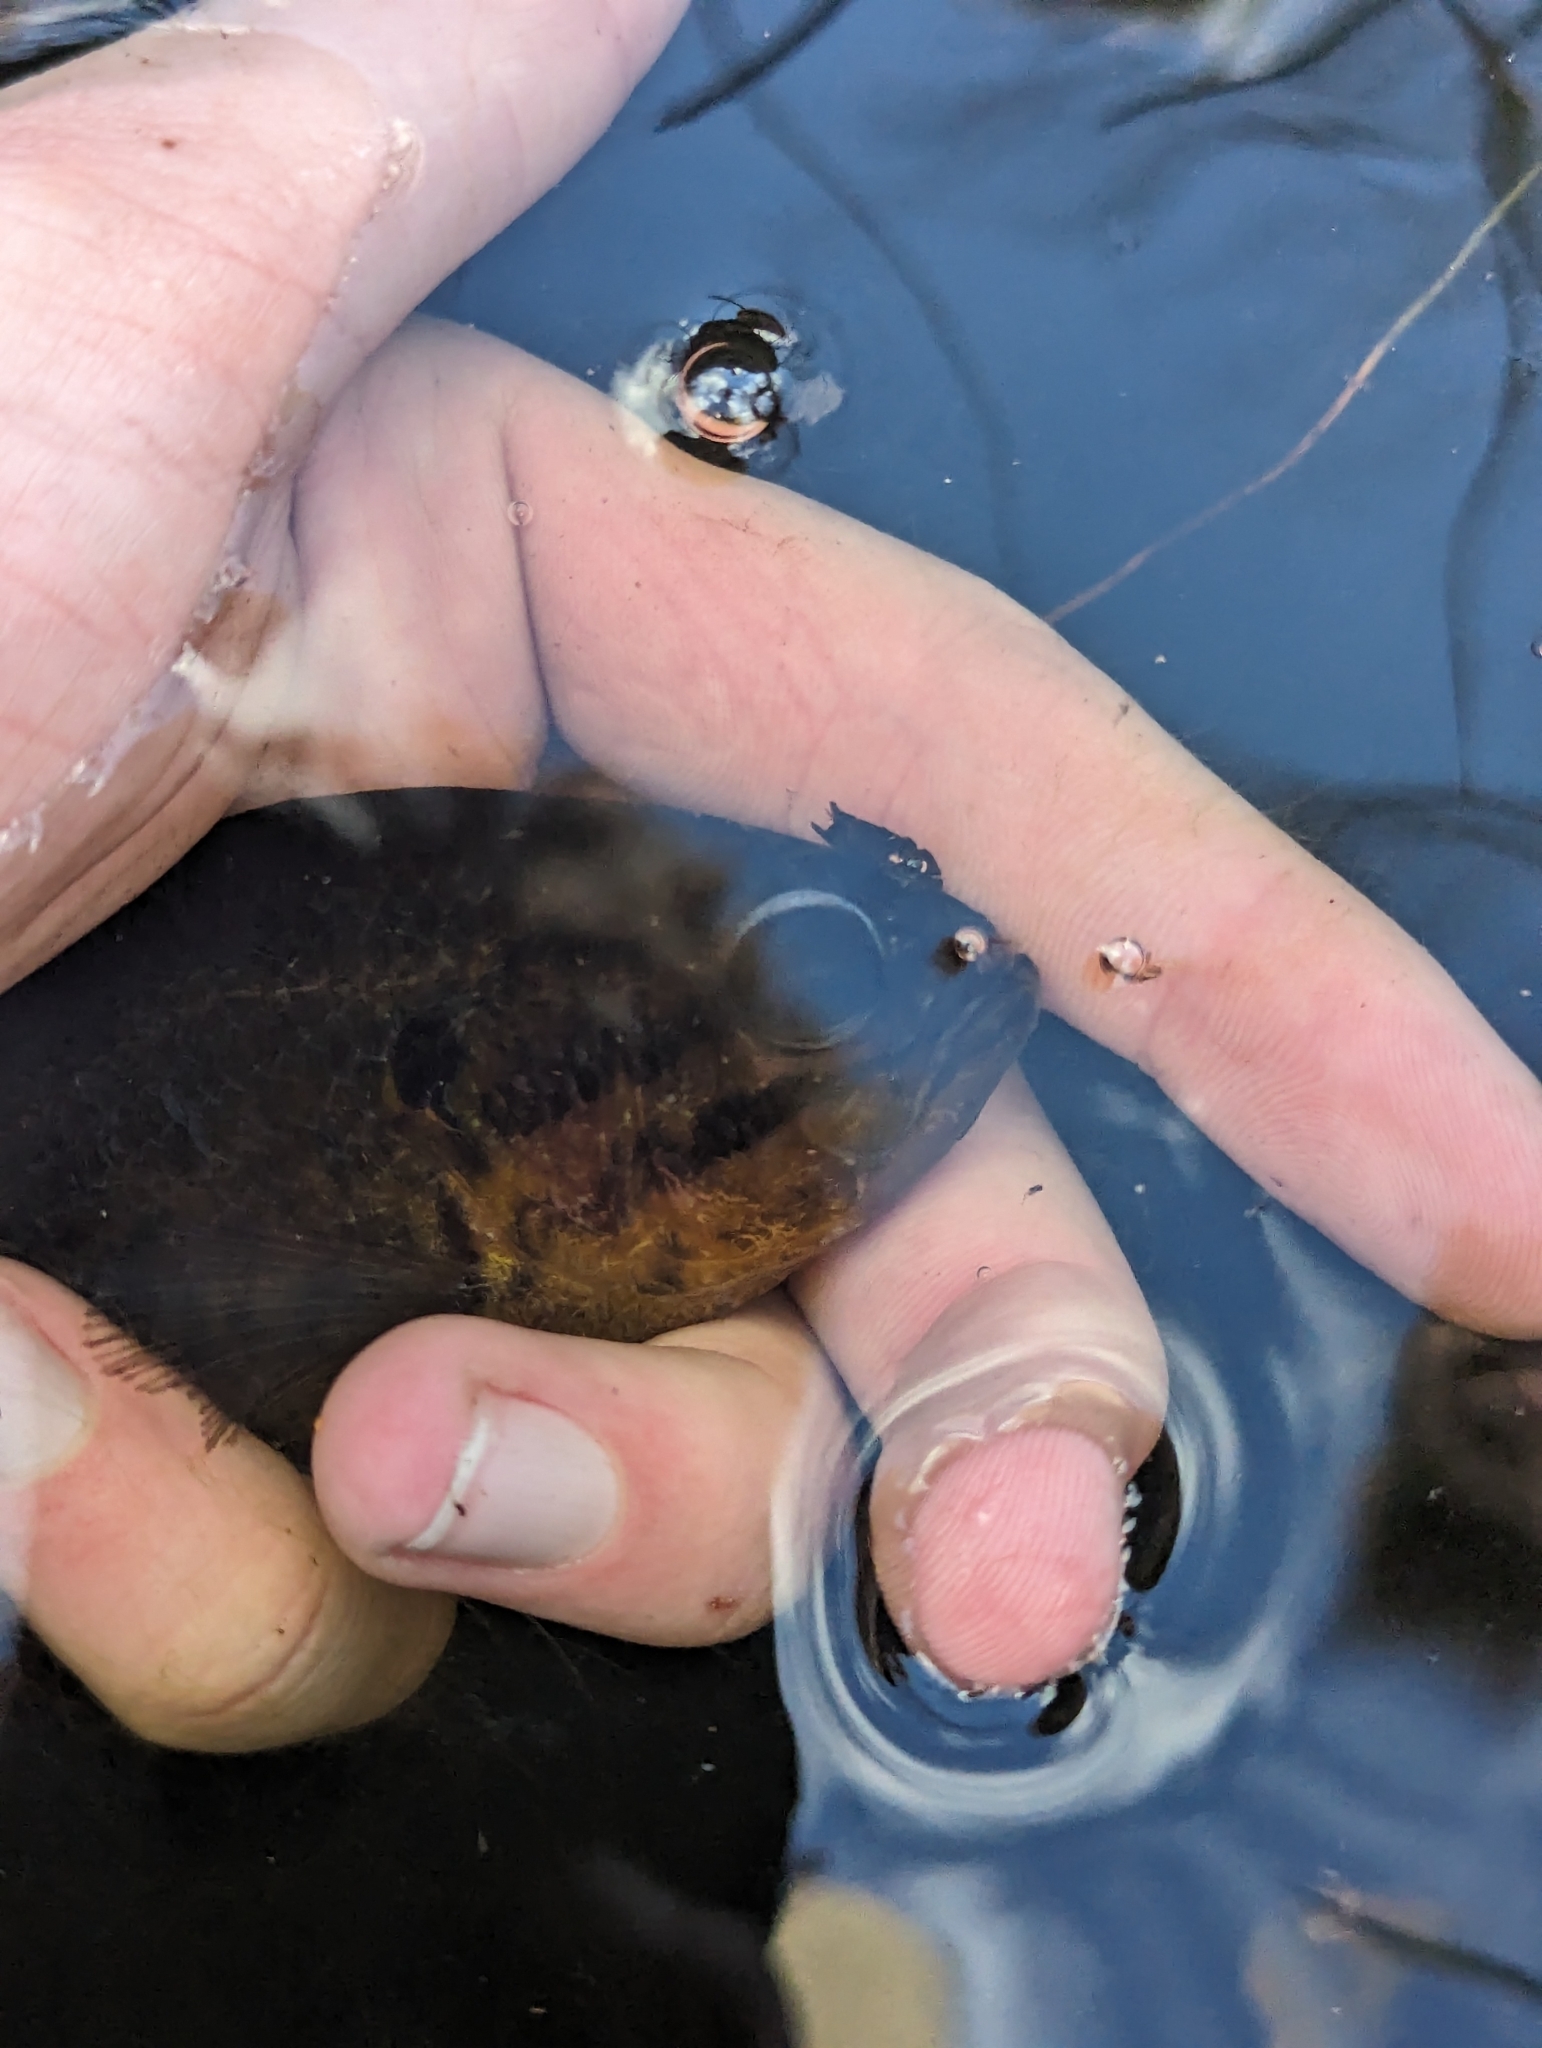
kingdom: Animalia
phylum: Chordata
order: Perciformes
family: Centrarchidae
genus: Acantharchus
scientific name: Acantharchus pomotis
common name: Mud sunfish
